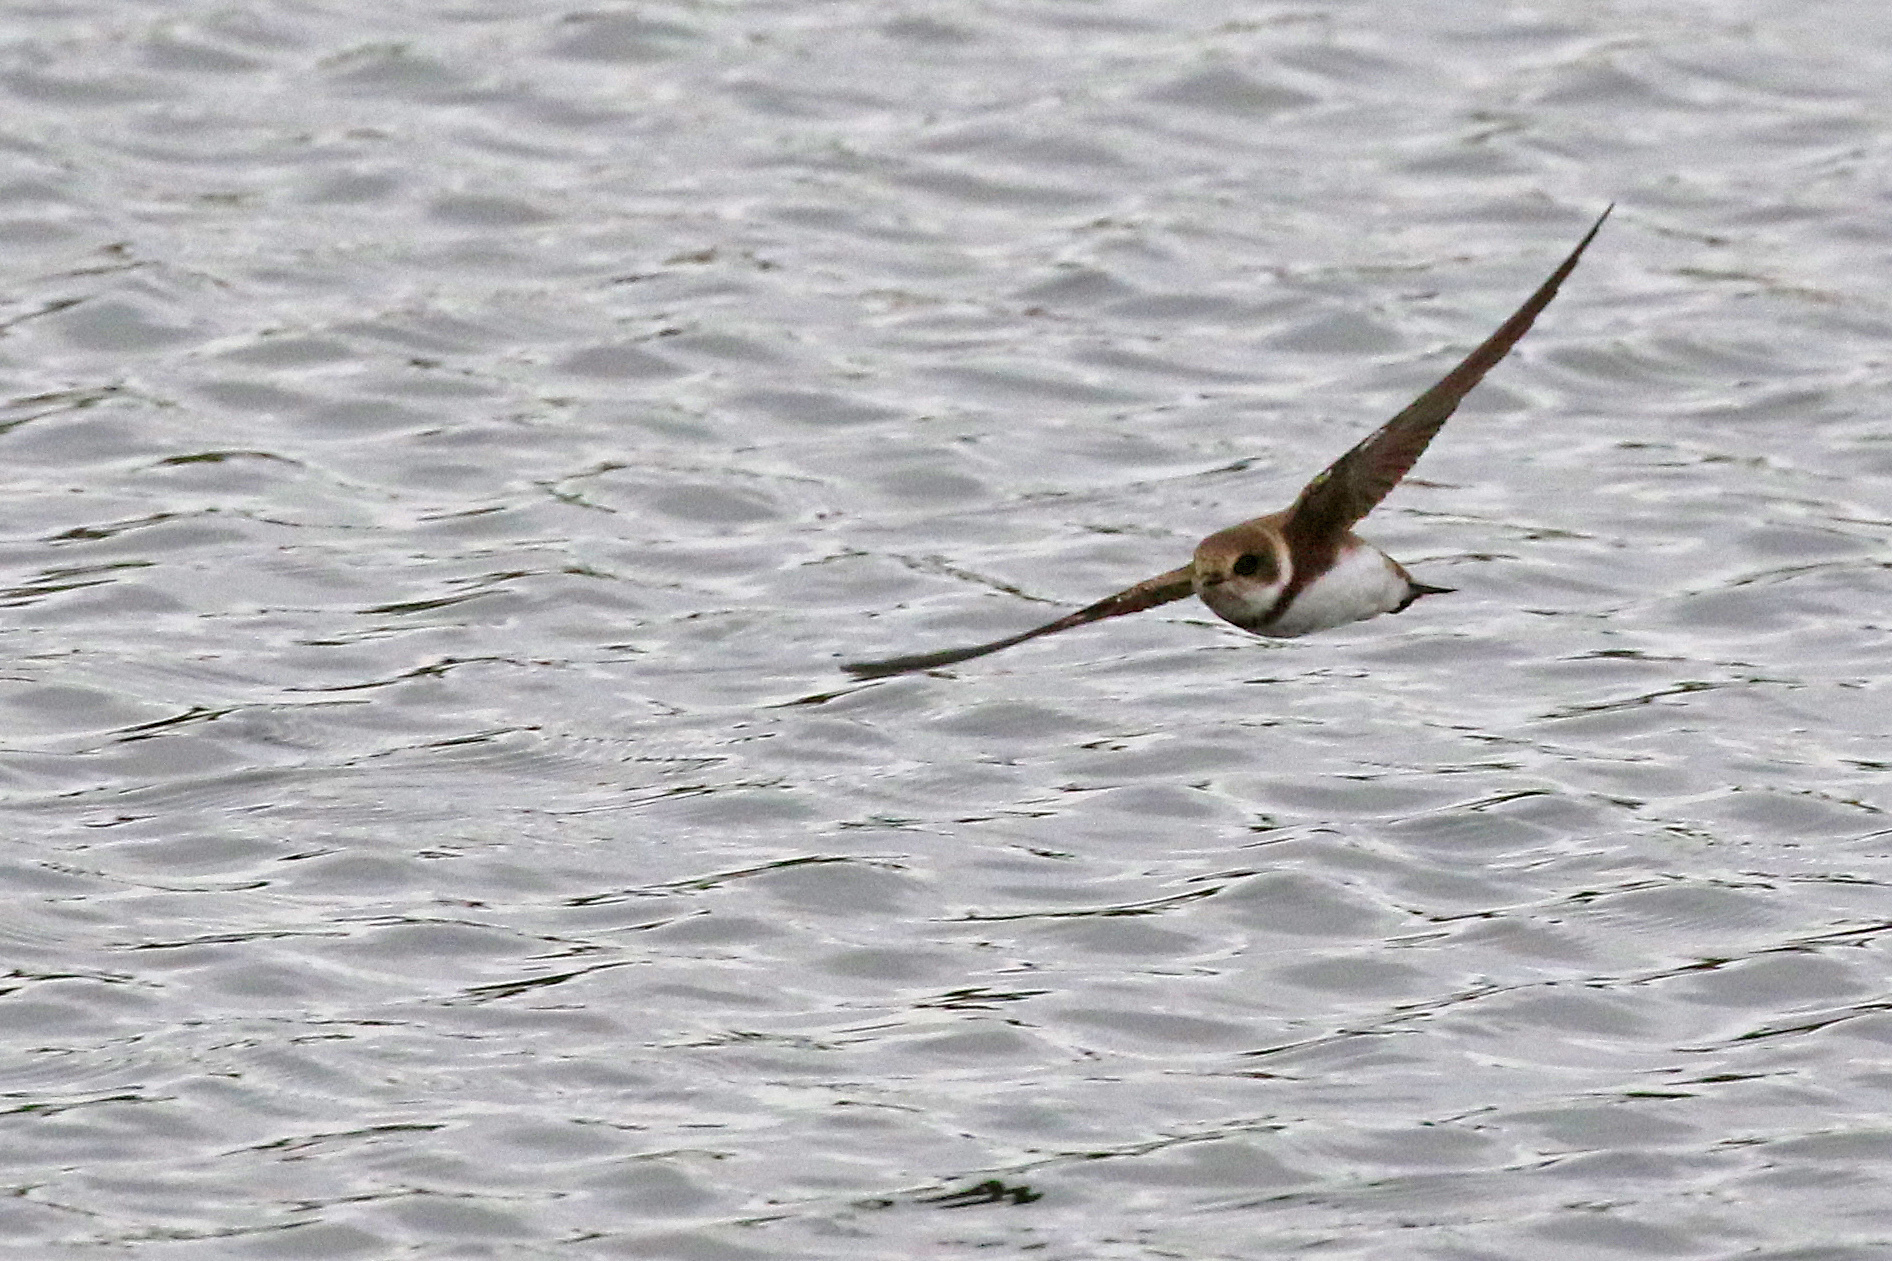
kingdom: Animalia
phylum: Chordata
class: Aves
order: Passeriformes
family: Hirundinidae
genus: Riparia
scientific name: Riparia riparia
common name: Sand martin
